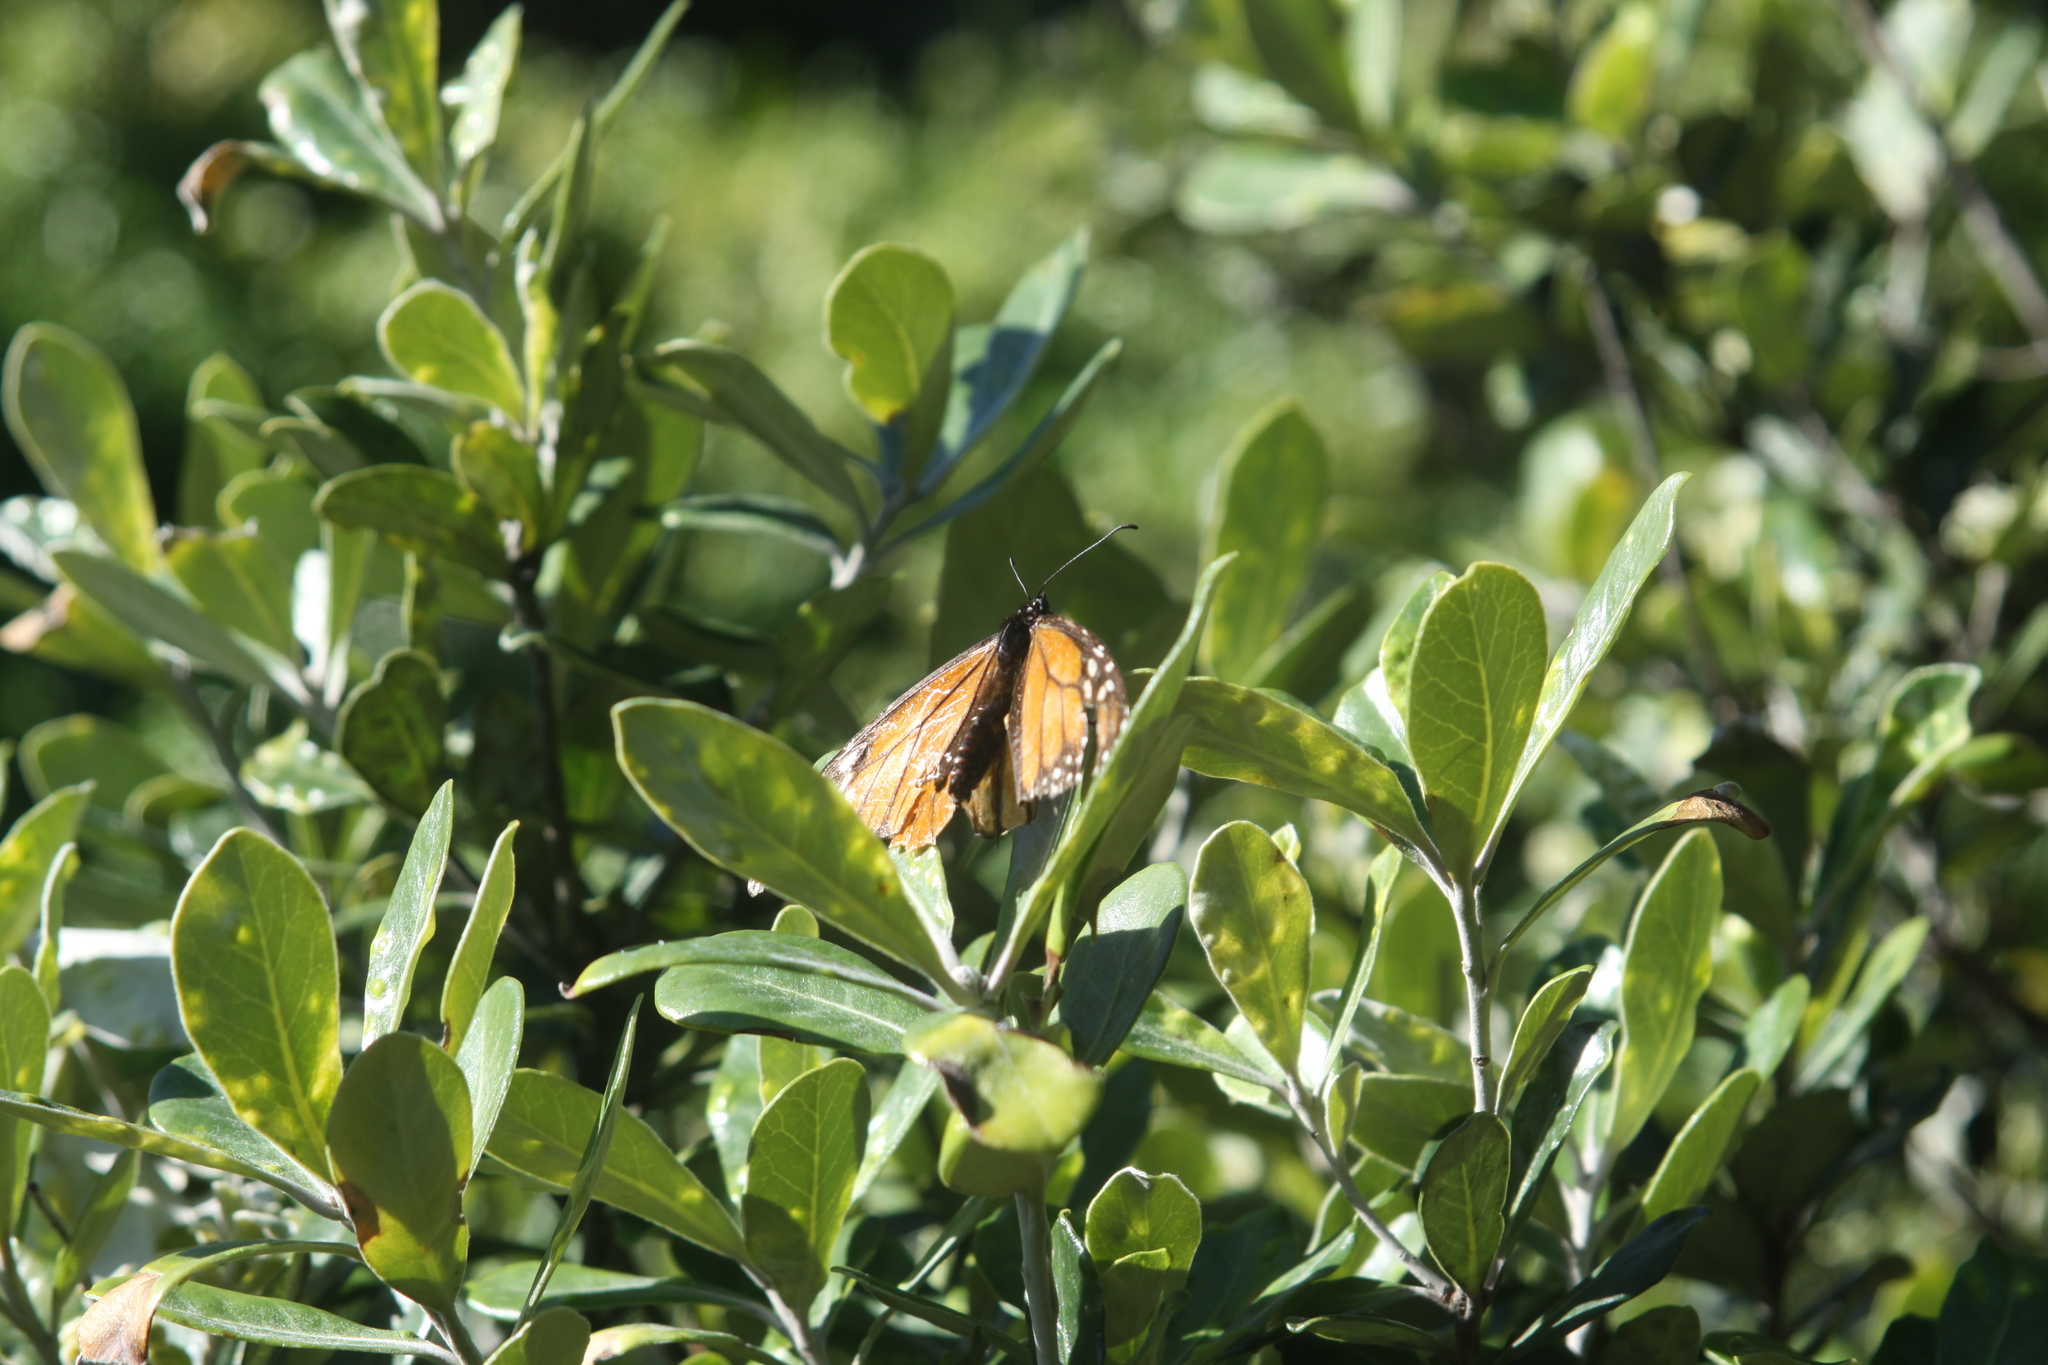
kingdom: Animalia
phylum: Arthropoda
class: Insecta
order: Lepidoptera
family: Nymphalidae
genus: Danaus
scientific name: Danaus plexippus
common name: Monarch
